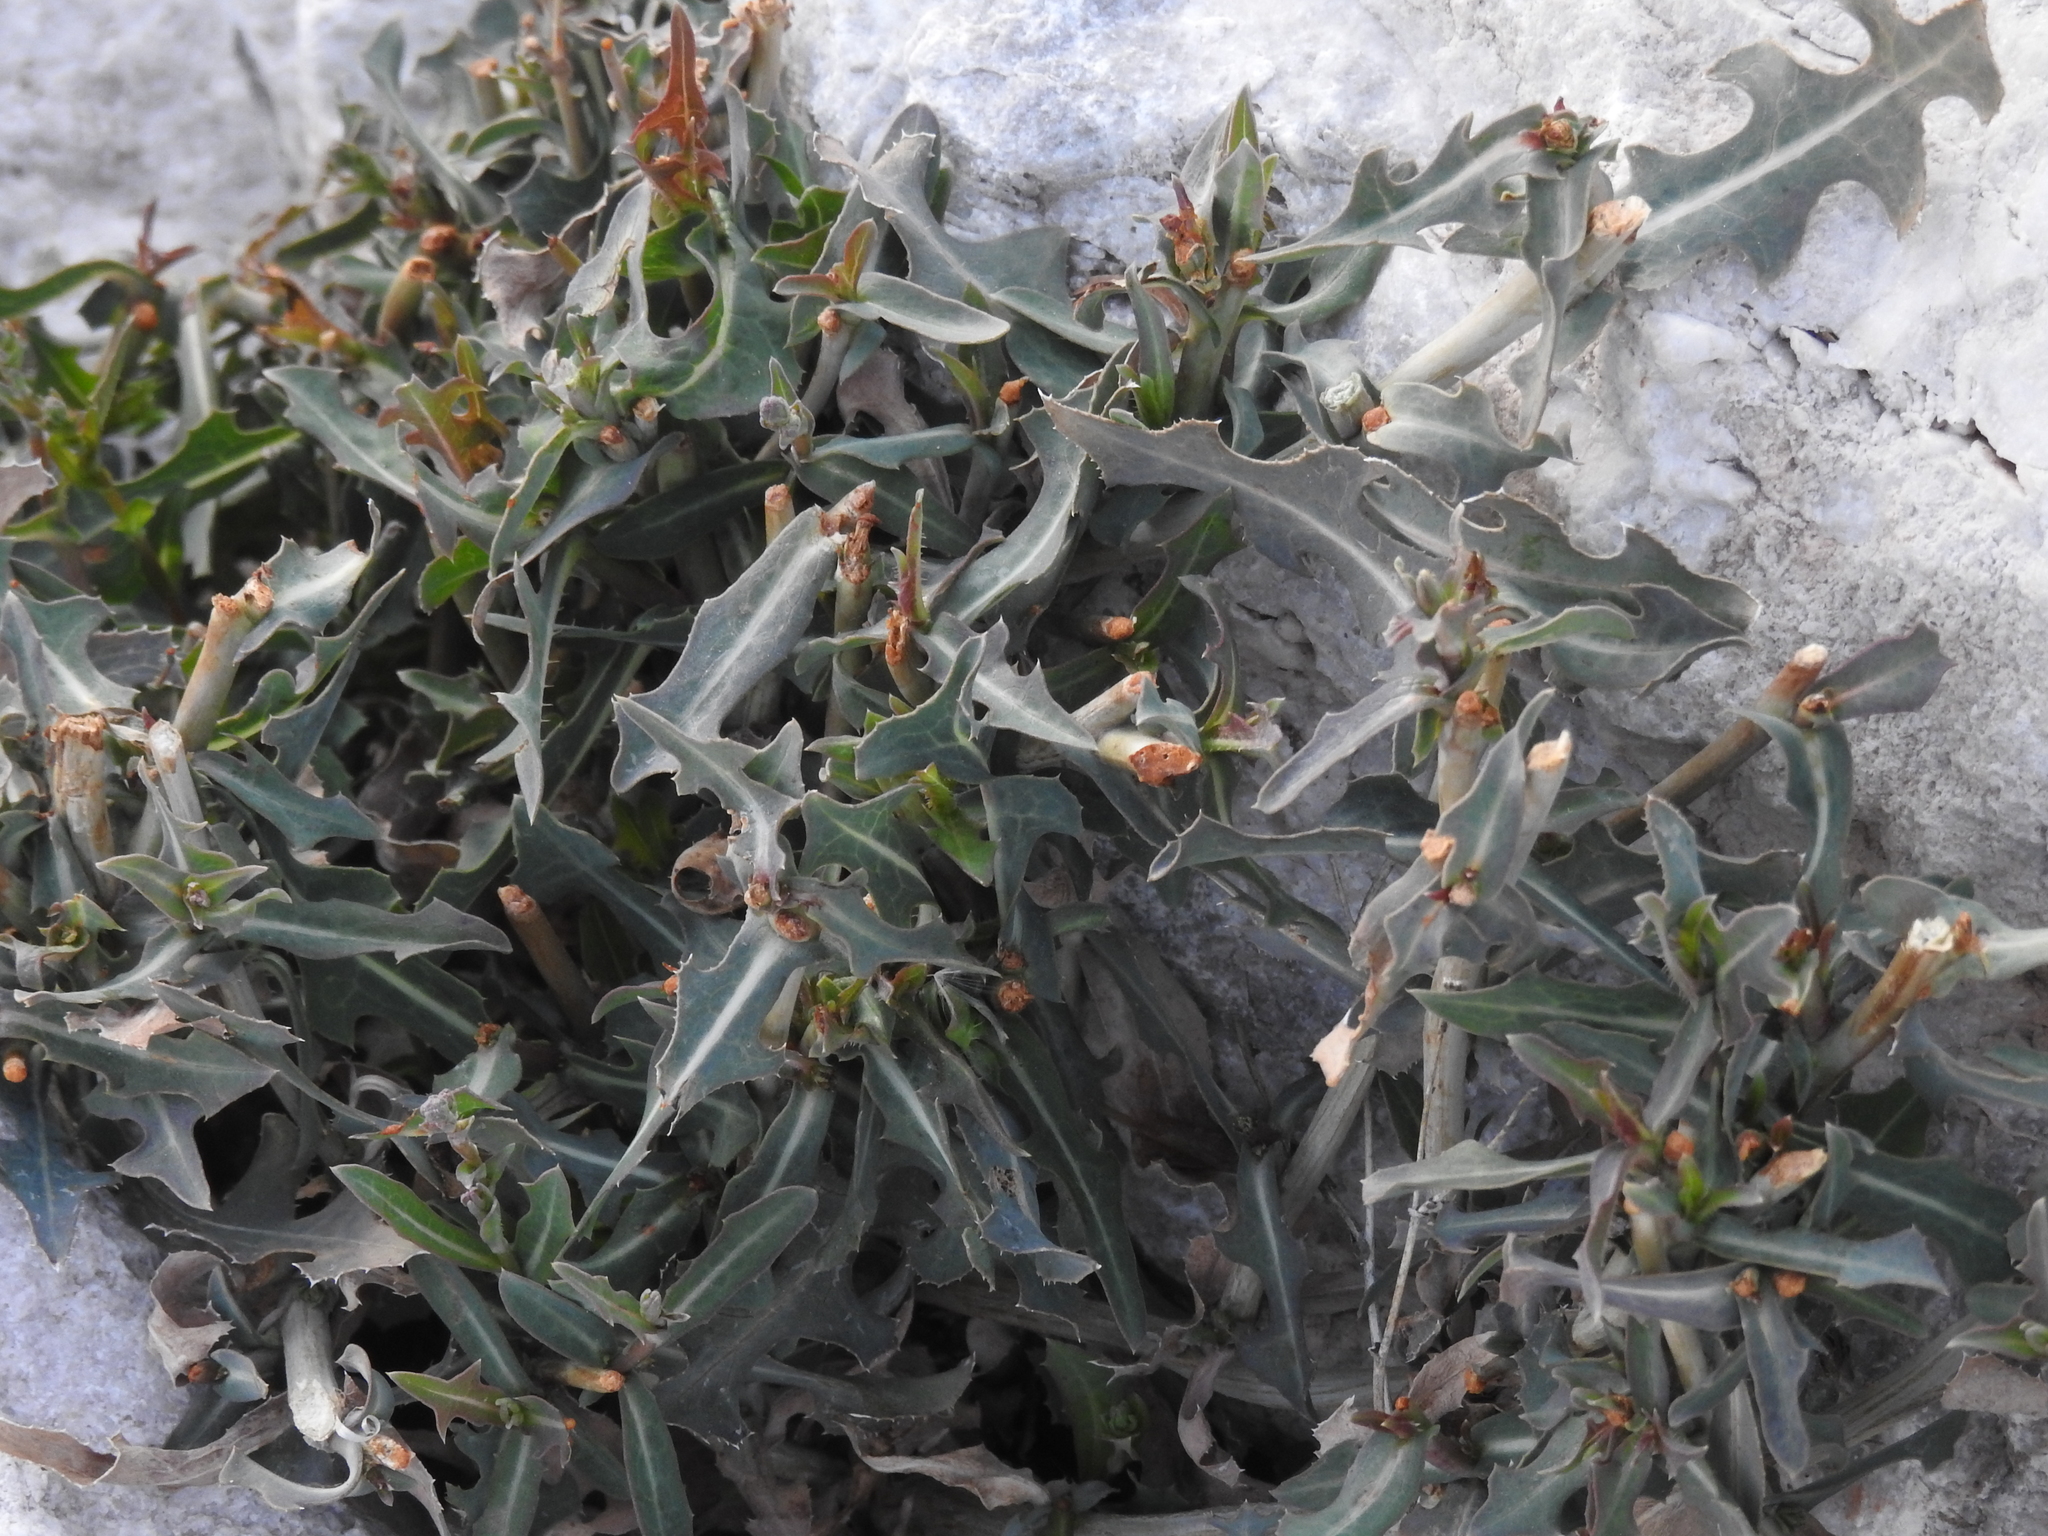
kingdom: Plantae
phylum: Tracheophyta
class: Magnoliopsida
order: Asterales
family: Asteraceae
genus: Lactuca
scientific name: Lactuca serriola
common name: Prickly lettuce
